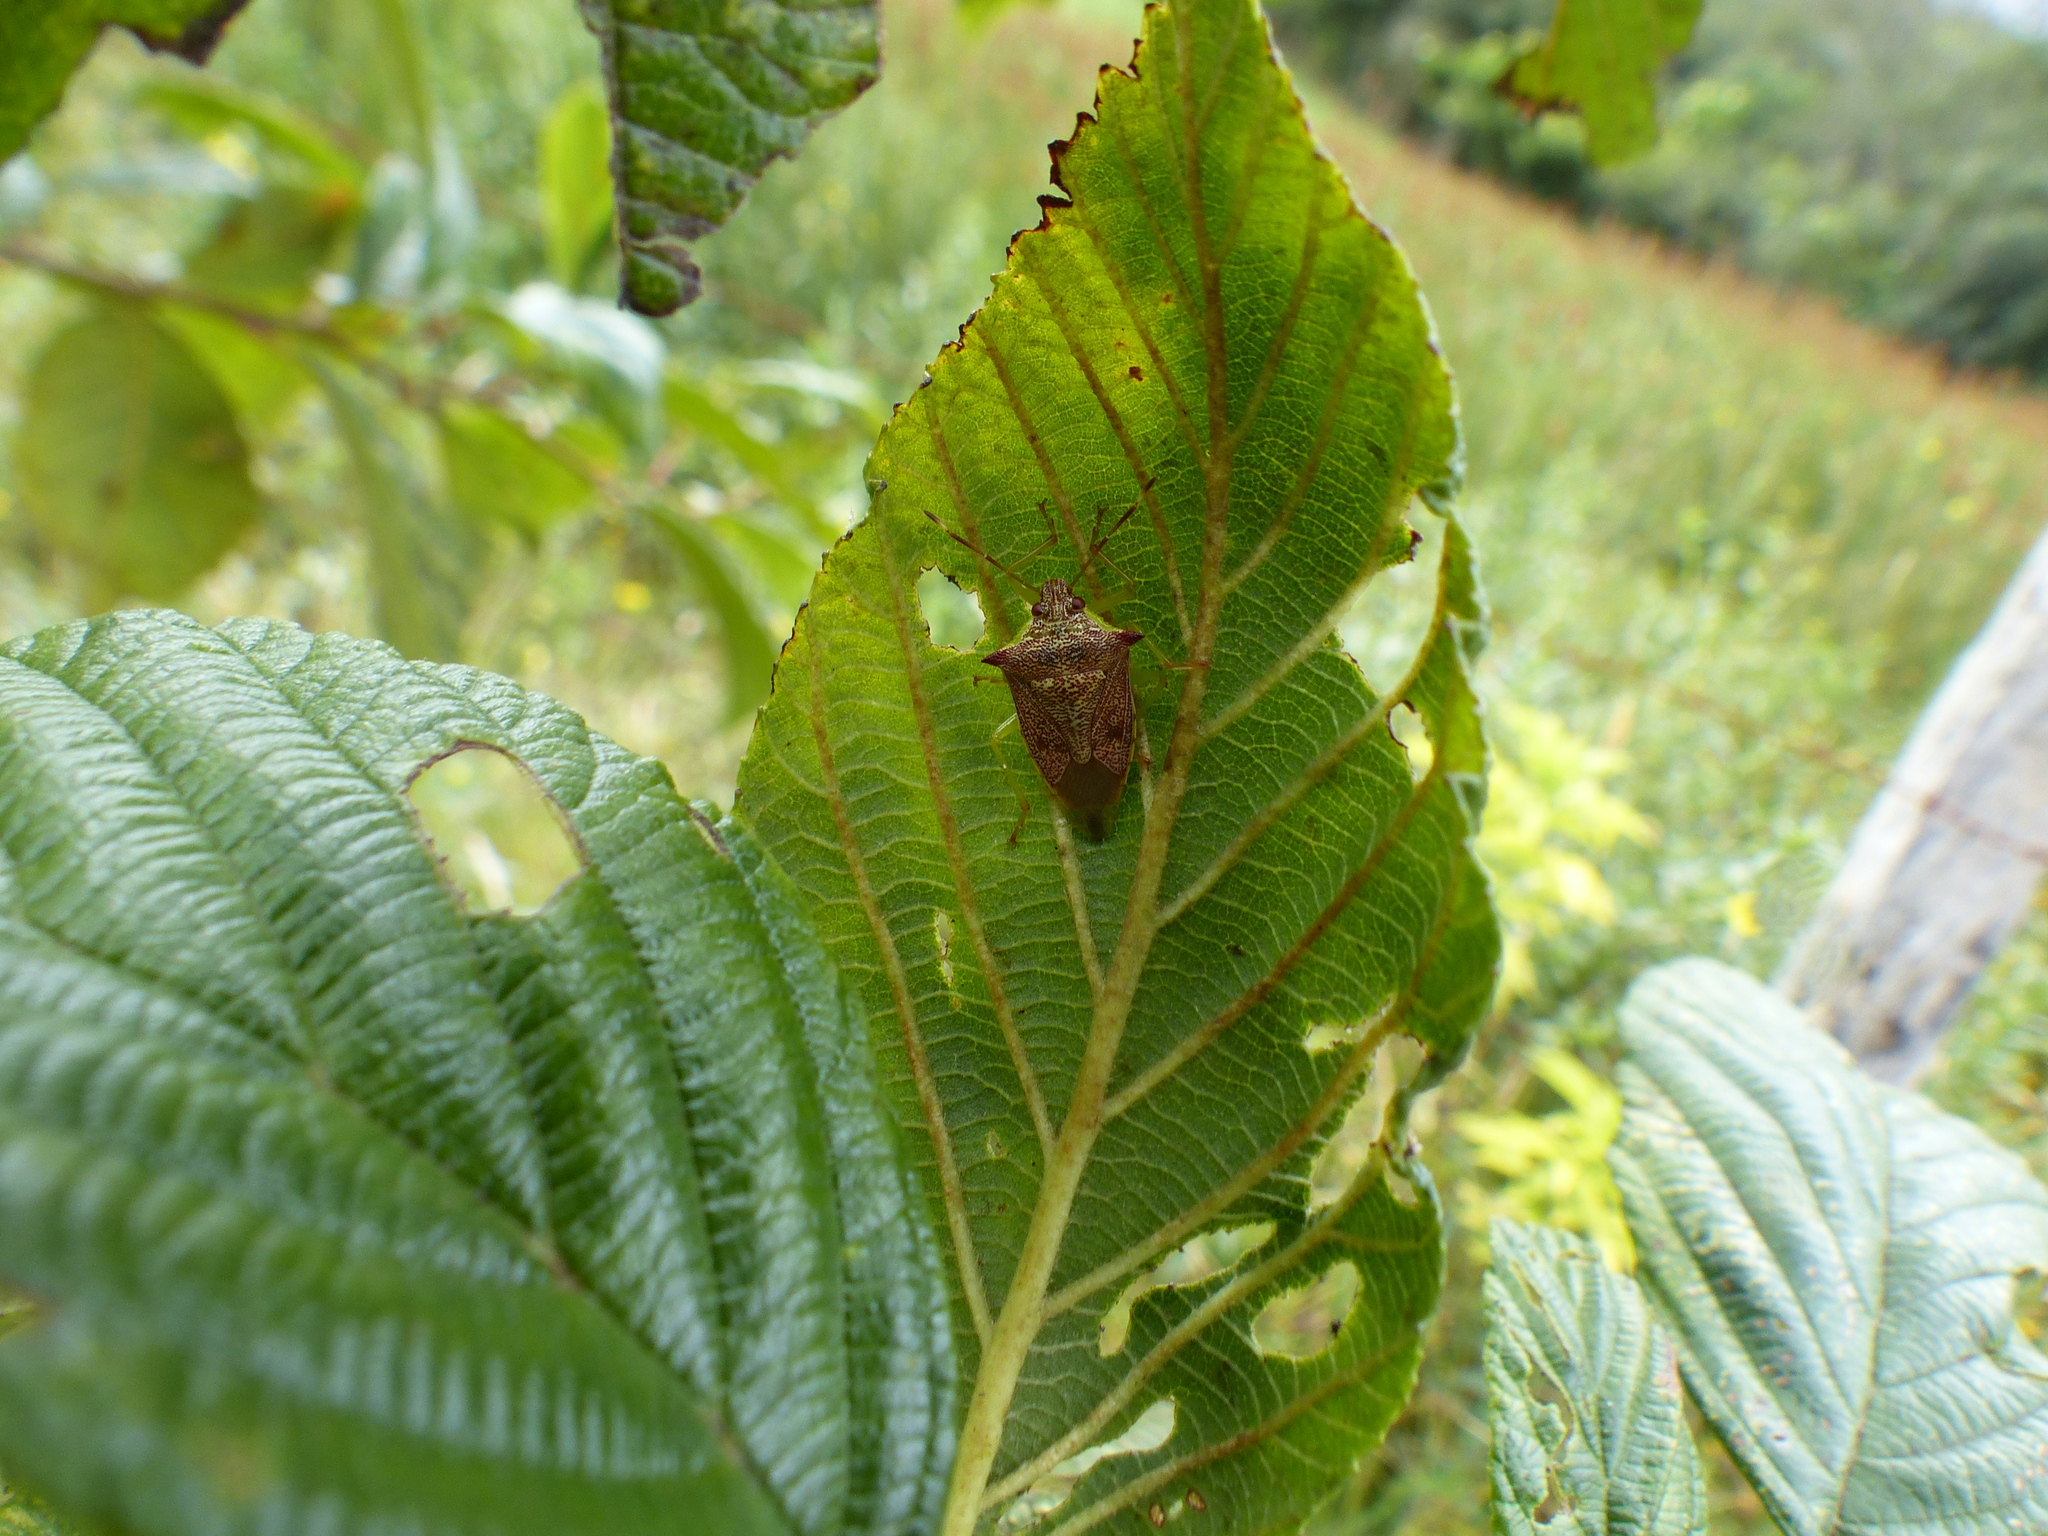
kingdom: Animalia
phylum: Arthropoda
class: Insecta
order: Hemiptera
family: Pentatomidae
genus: Podisus
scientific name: Podisus
